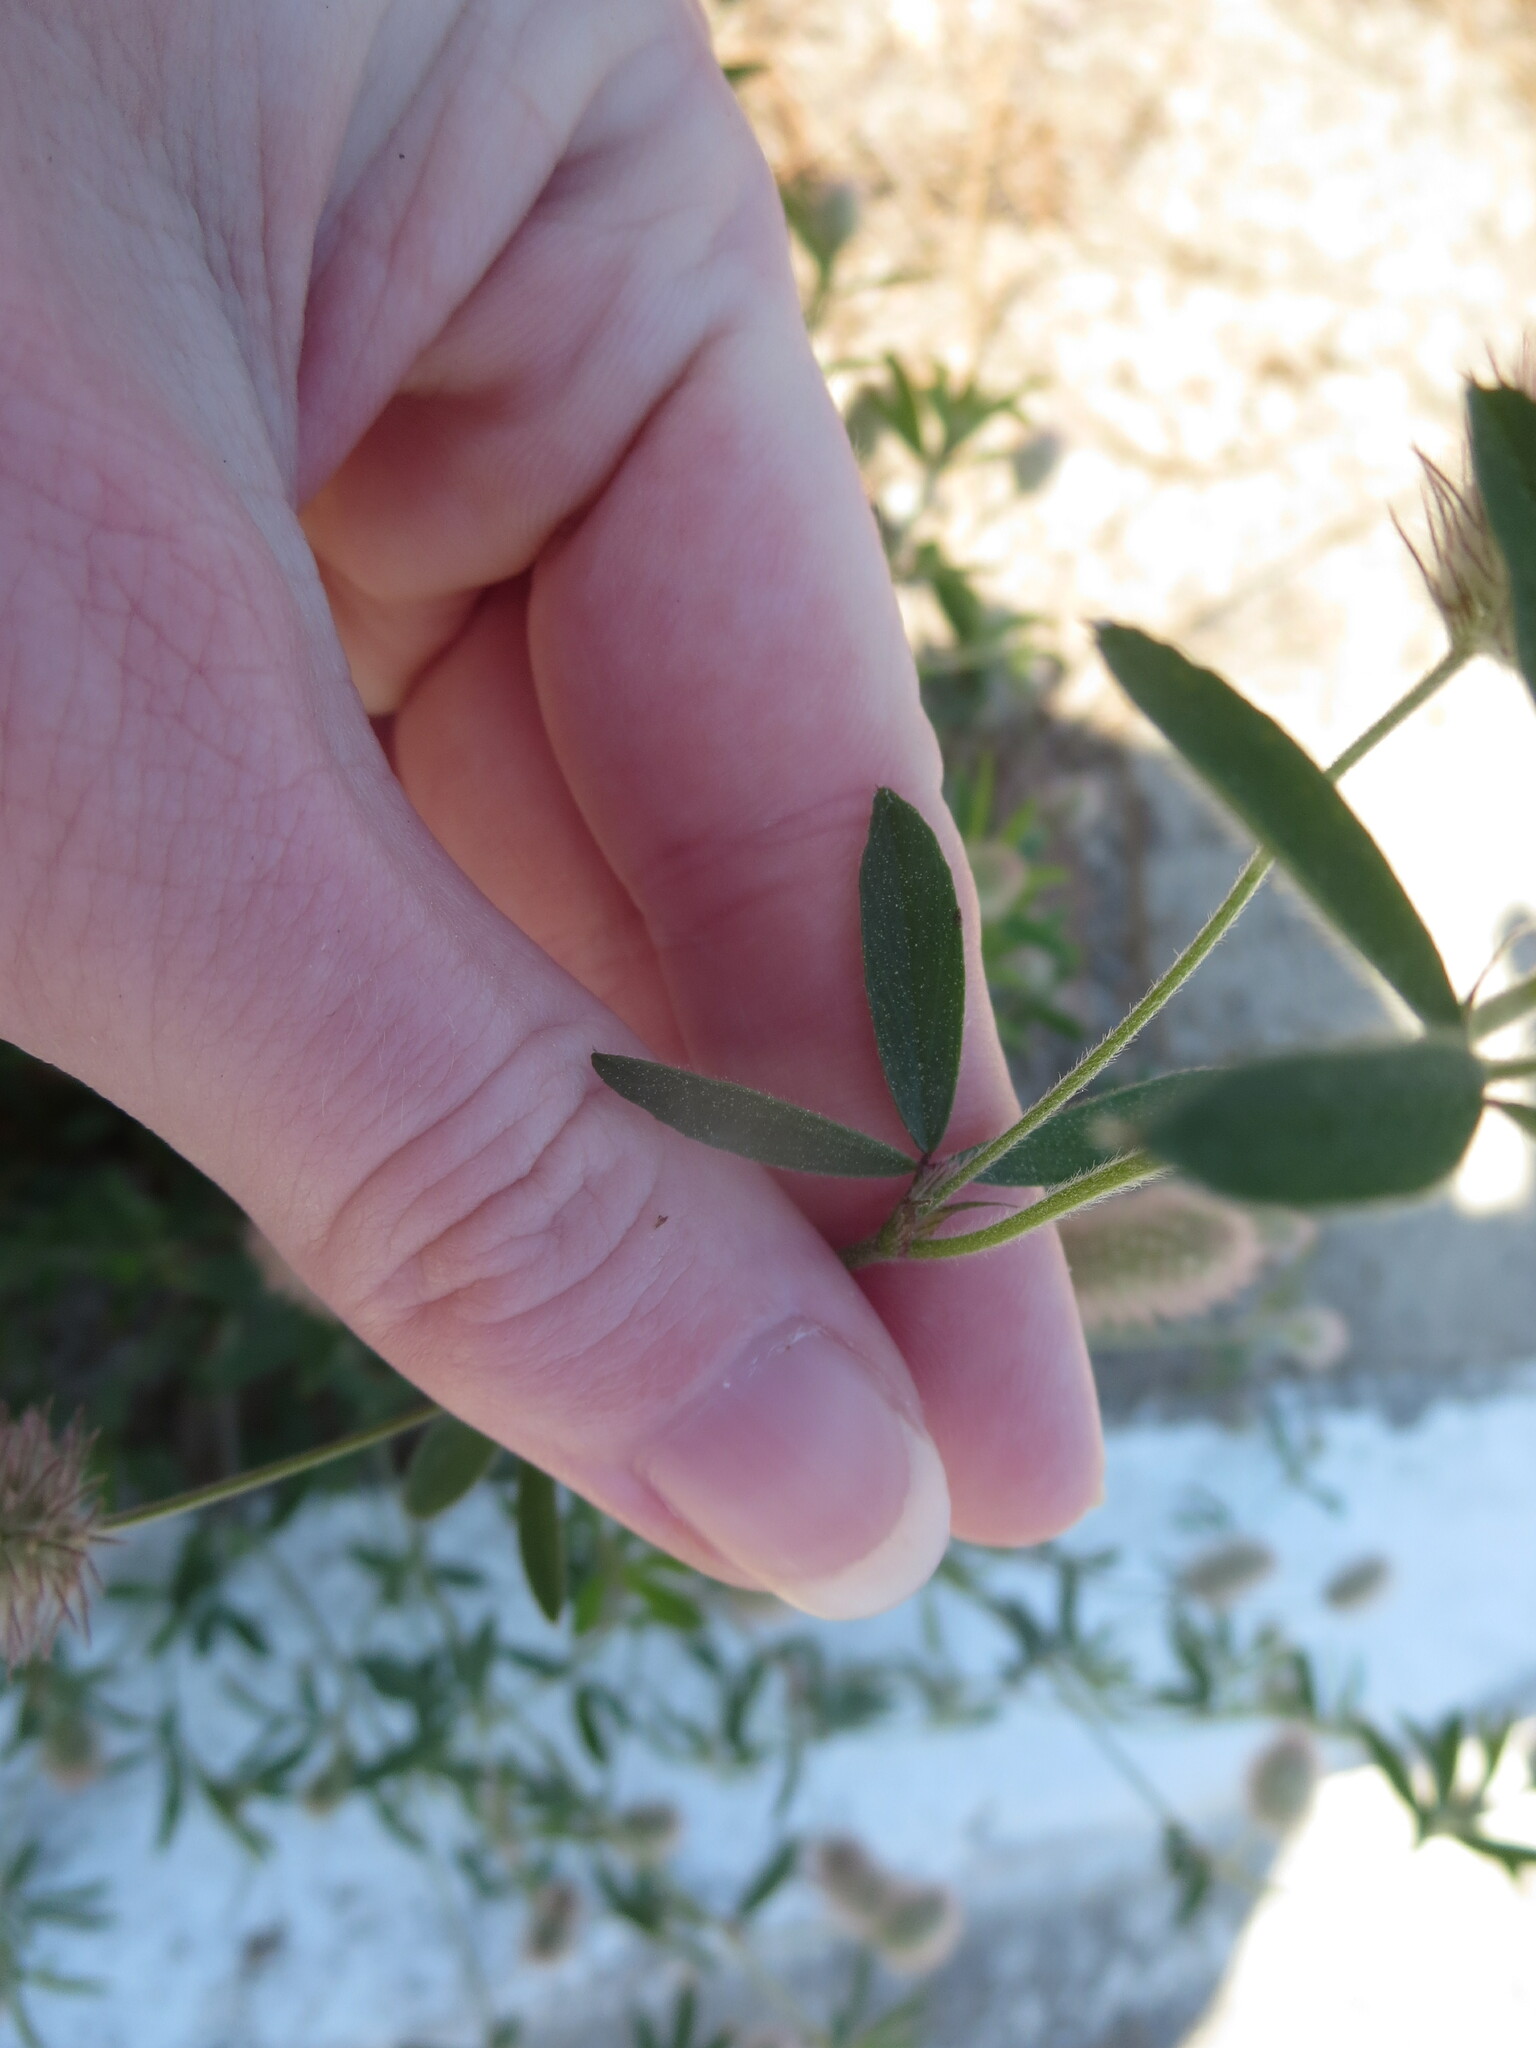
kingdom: Plantae
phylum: Tracheophyta
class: Magnoliopsida
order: Fabales
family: Fabaceae
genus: Trifolium
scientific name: Trifolium arvense
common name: Hare's-foot clover
